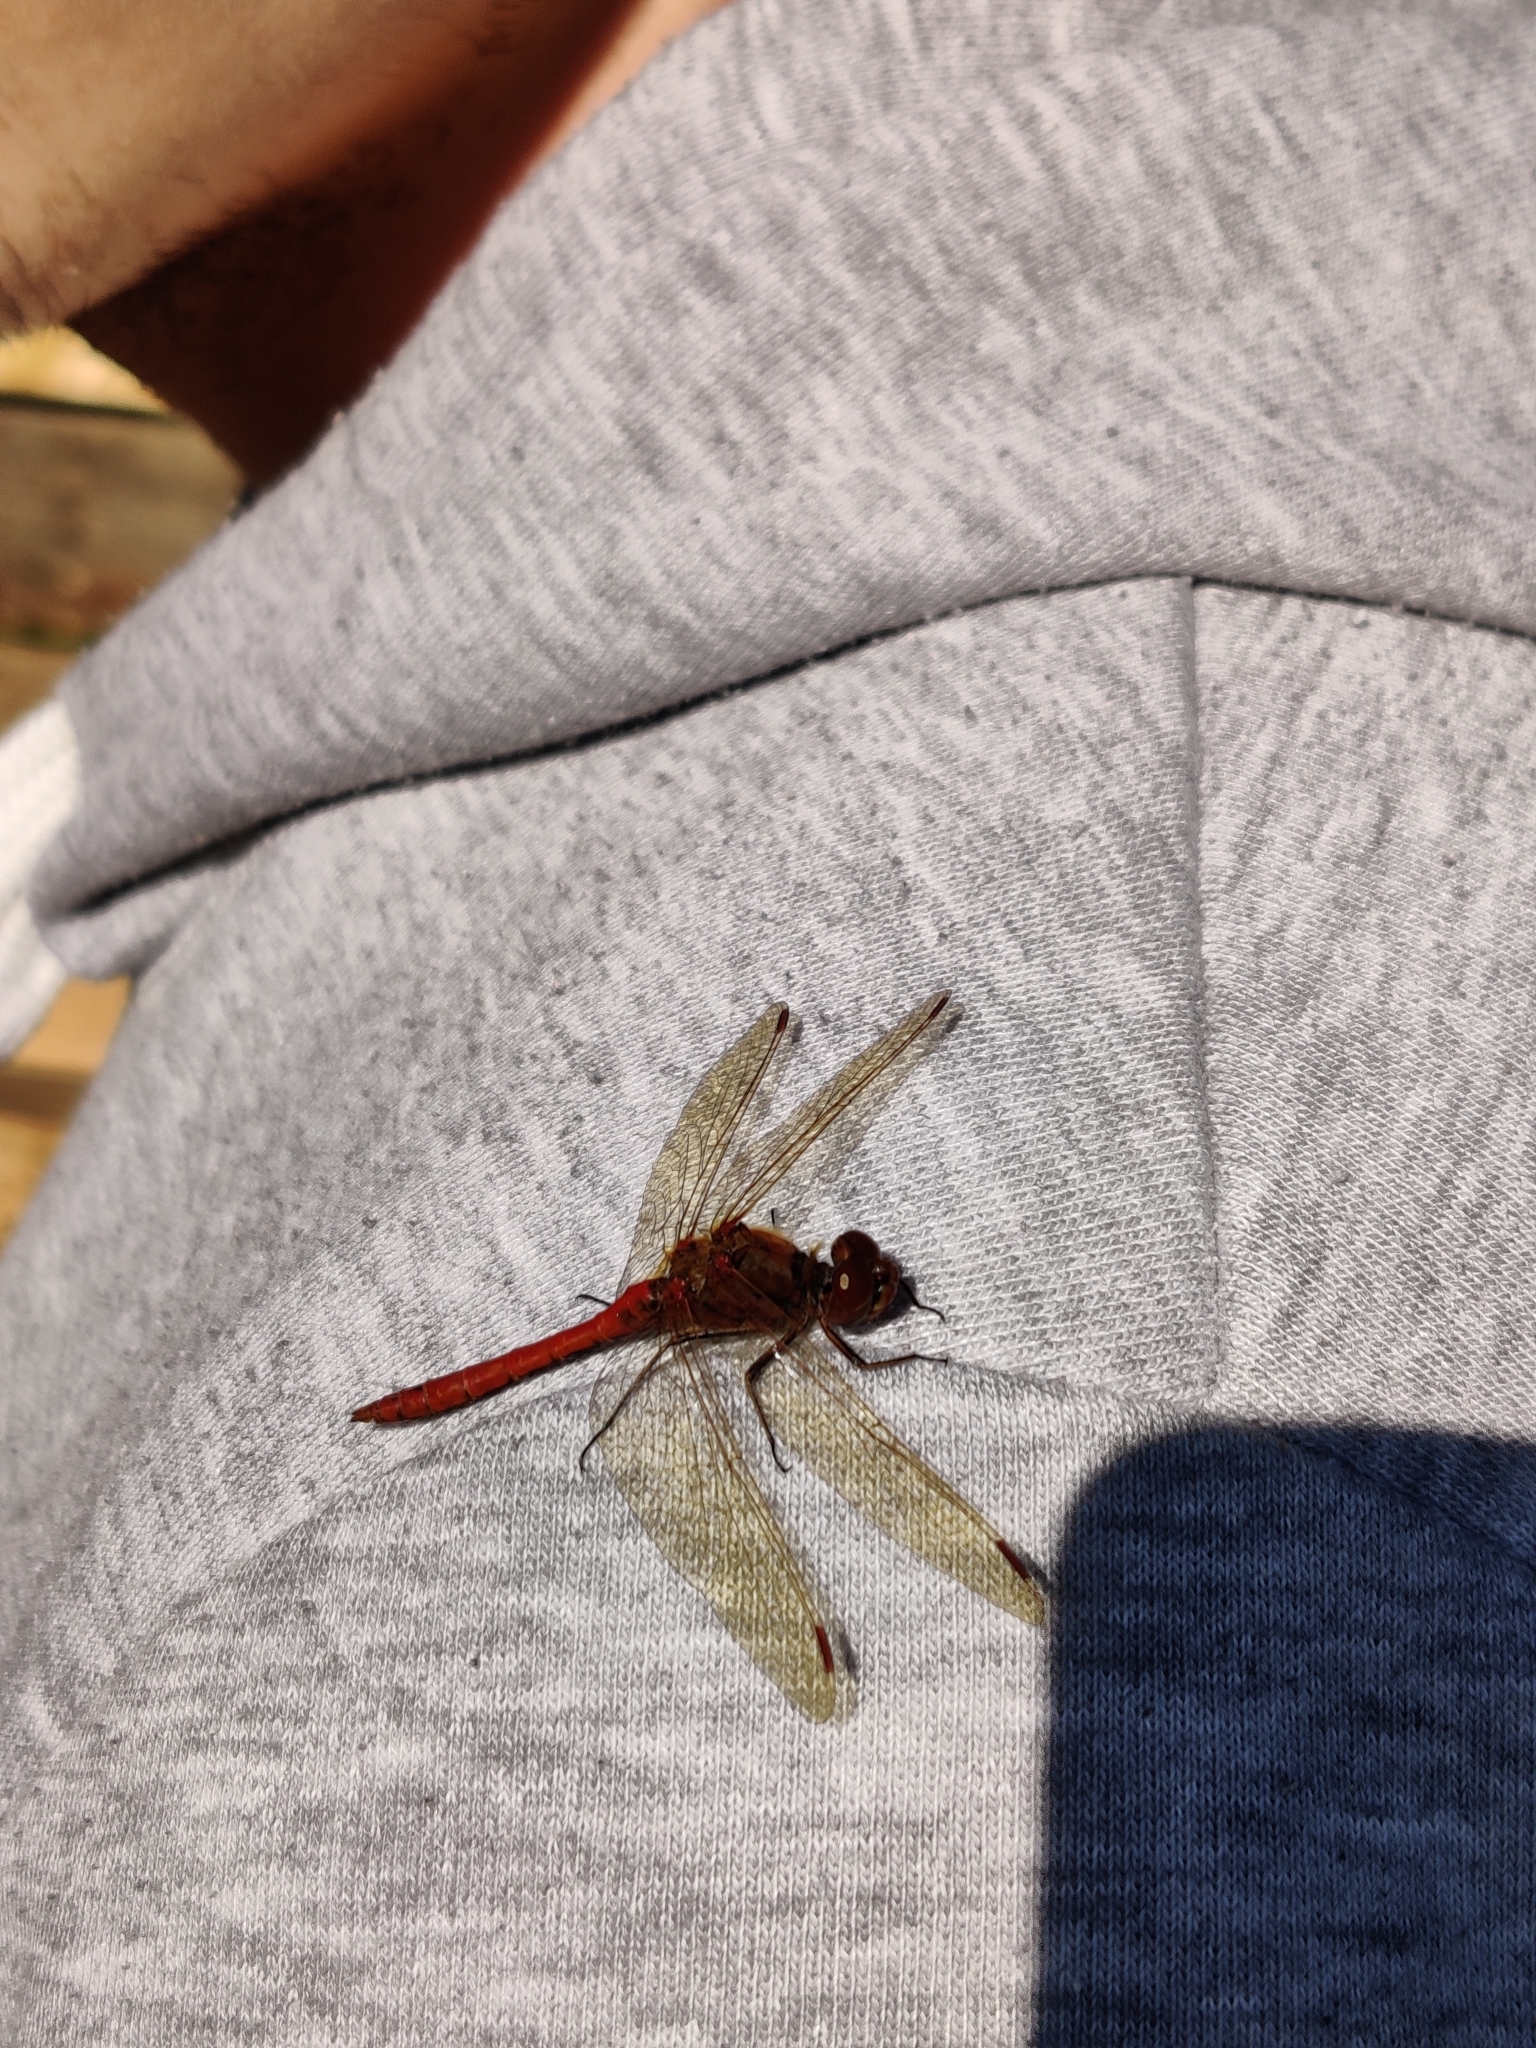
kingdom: Animalia
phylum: Arthropoda
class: Insecta
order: Odonata
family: Libellulidae
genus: Sympetrum
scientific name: Sympetrum sanguineum
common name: Ruddy darter
